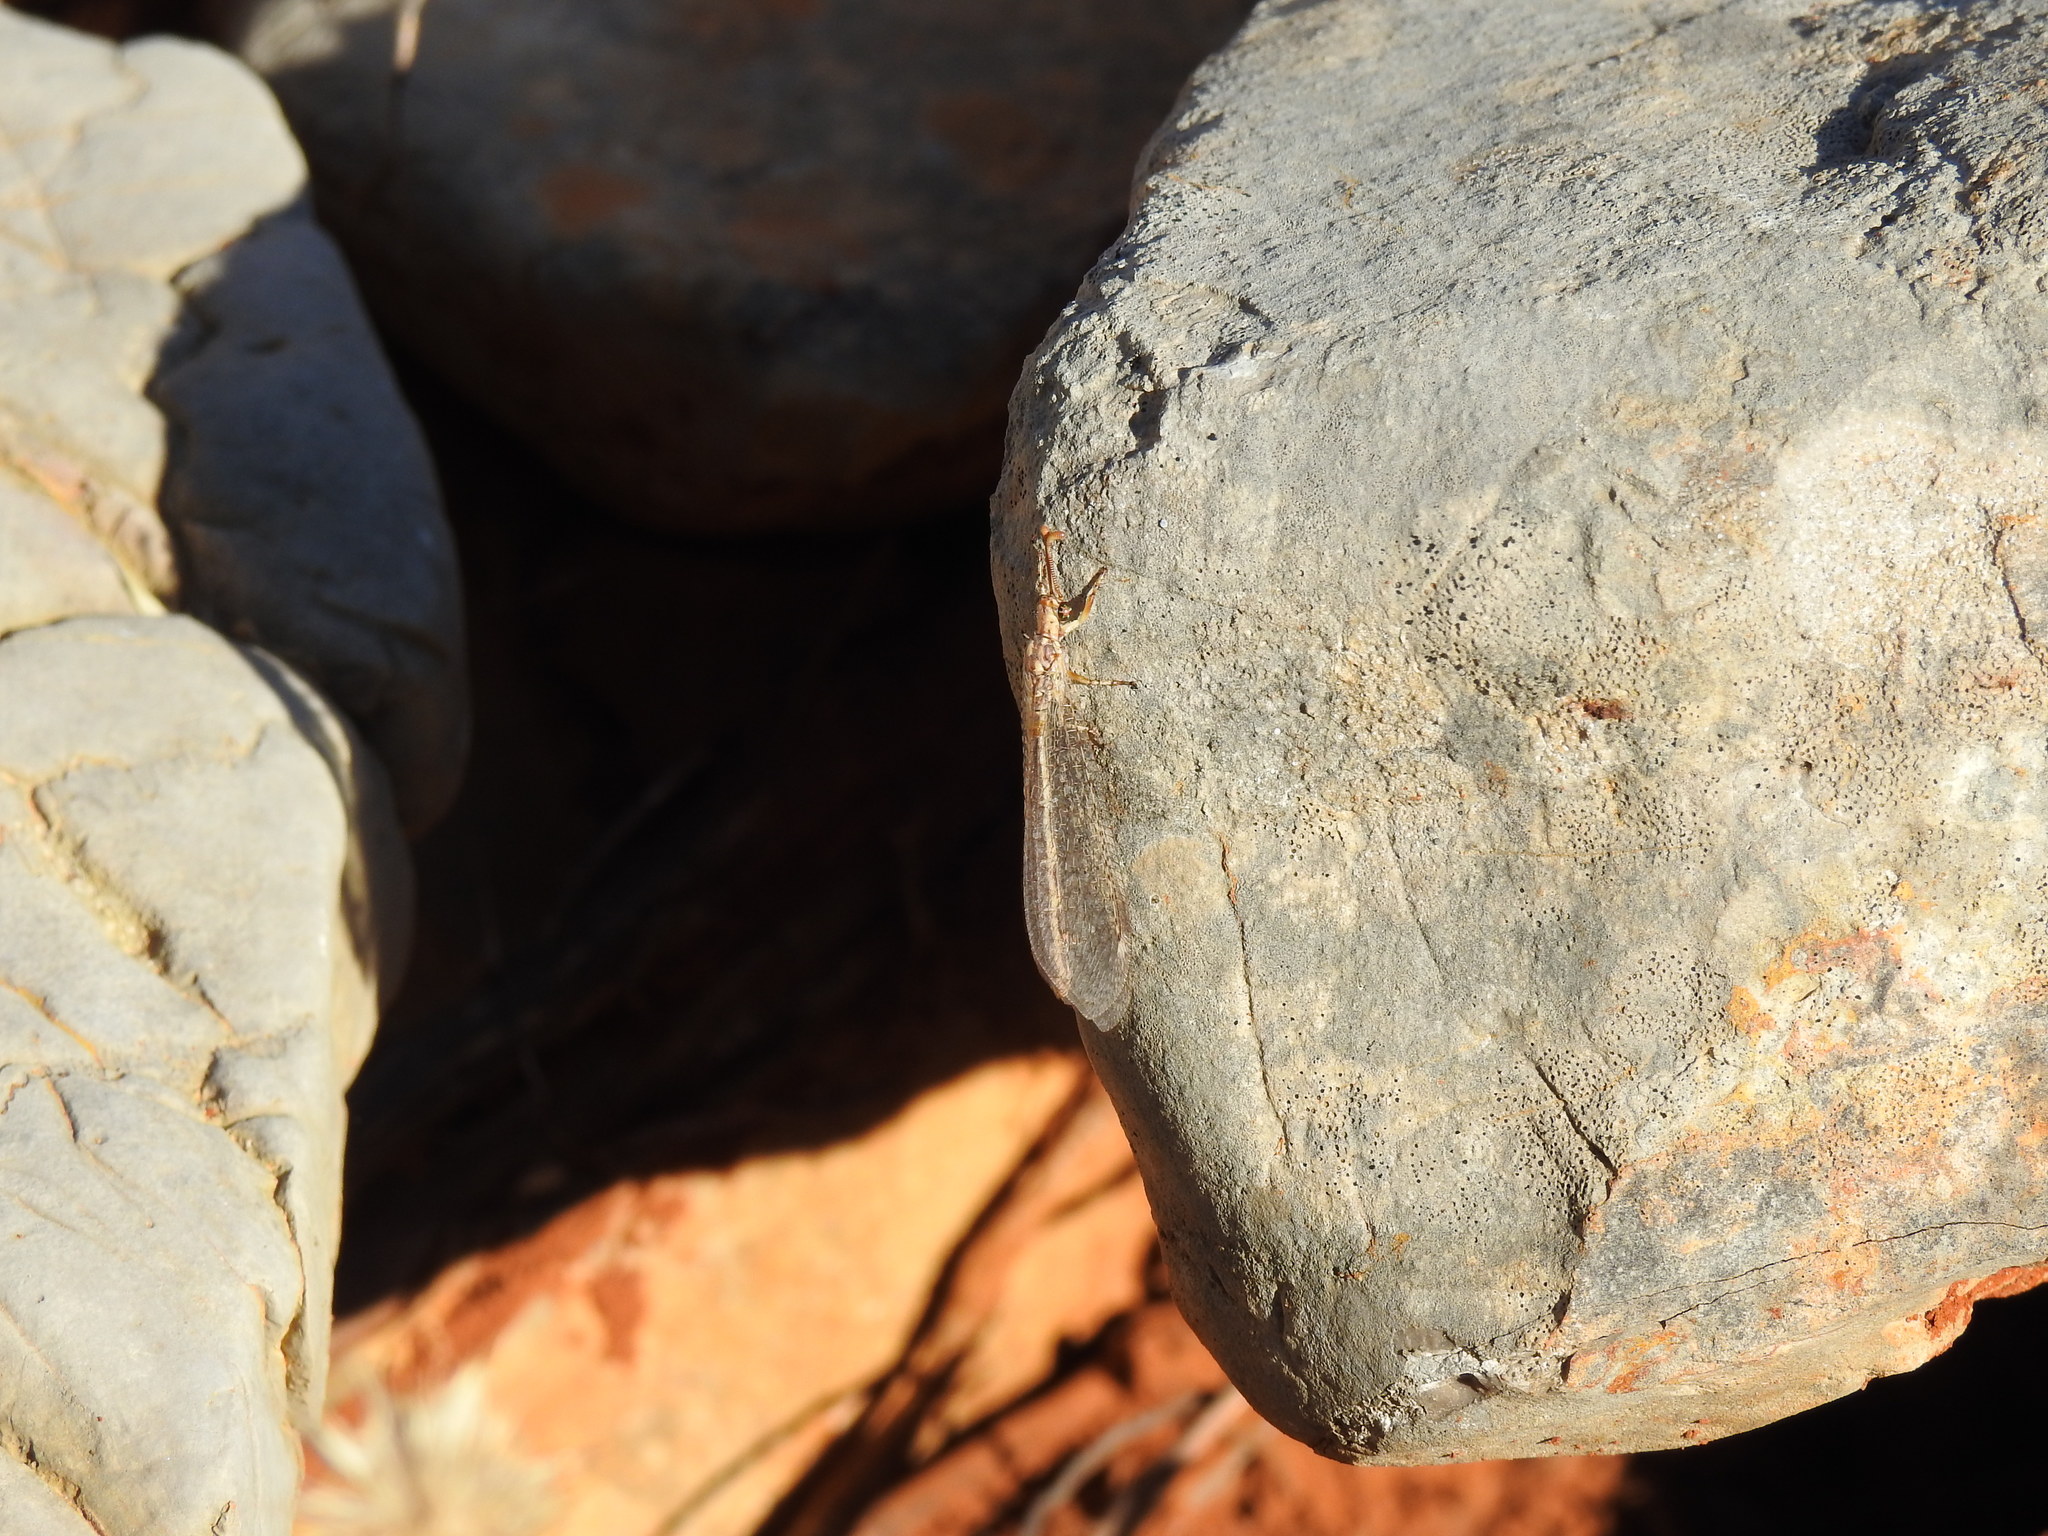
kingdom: Animalia
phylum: Arthropoda
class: Insecta
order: Neuroptera
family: Myrmeleontidae
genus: Macronemurus
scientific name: Macronemurus appendiculatus
